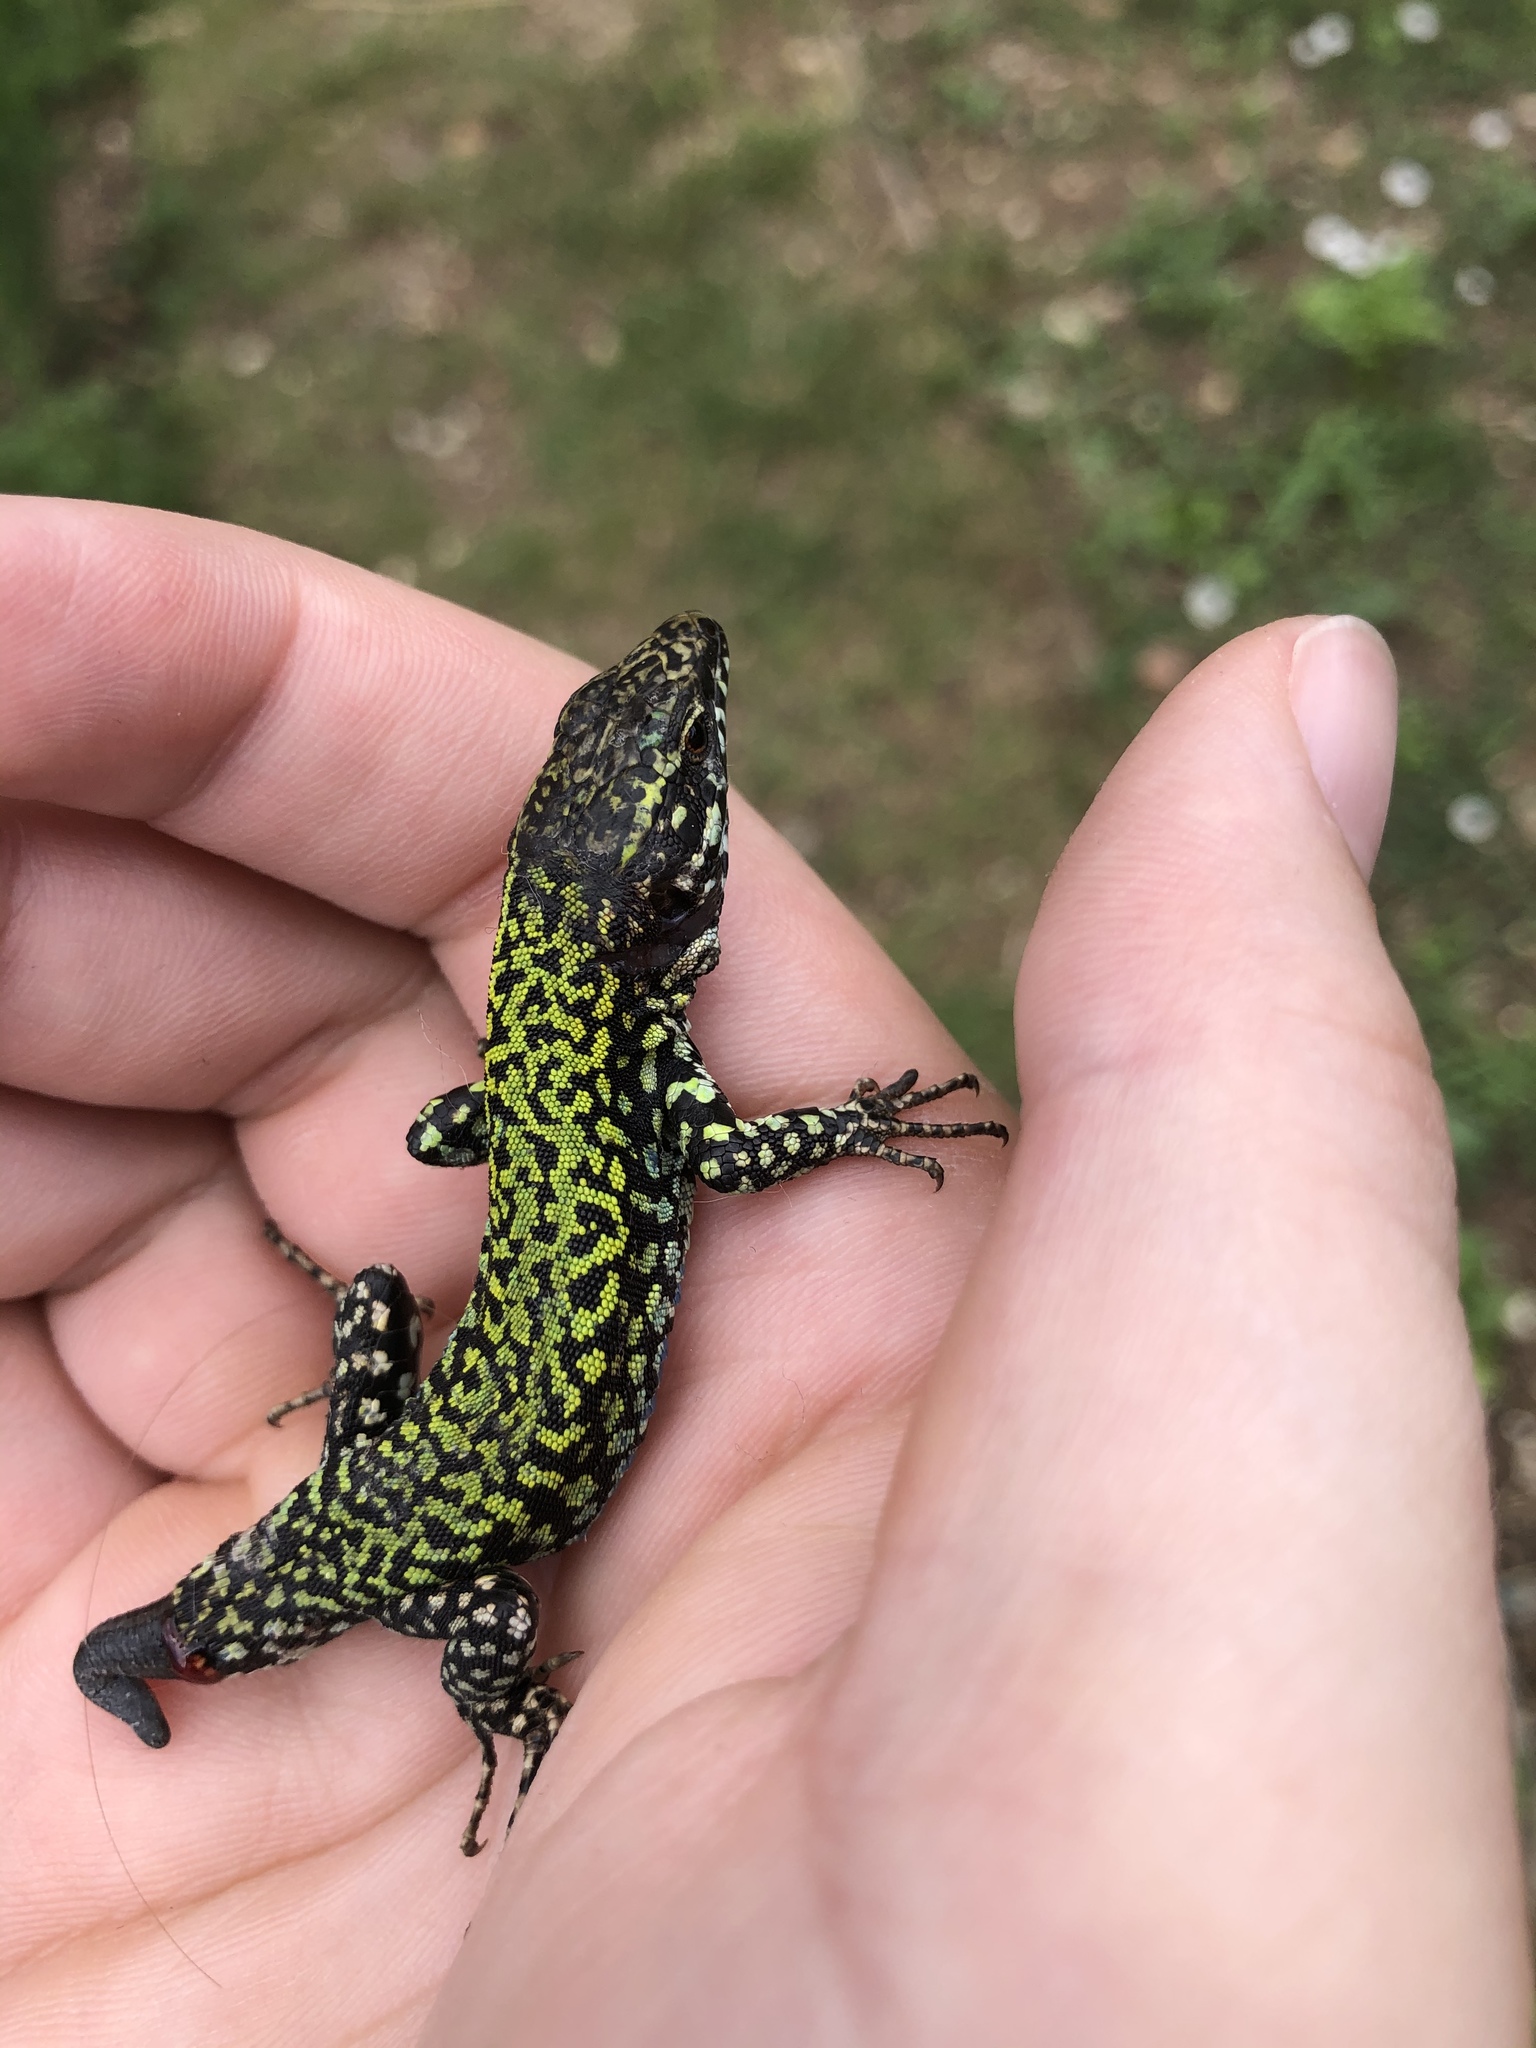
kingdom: Animalia
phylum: Chordata
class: Squamata
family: Lacertidae
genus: Podarcis
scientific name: Podarcis muralis
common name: Common wall lizard
